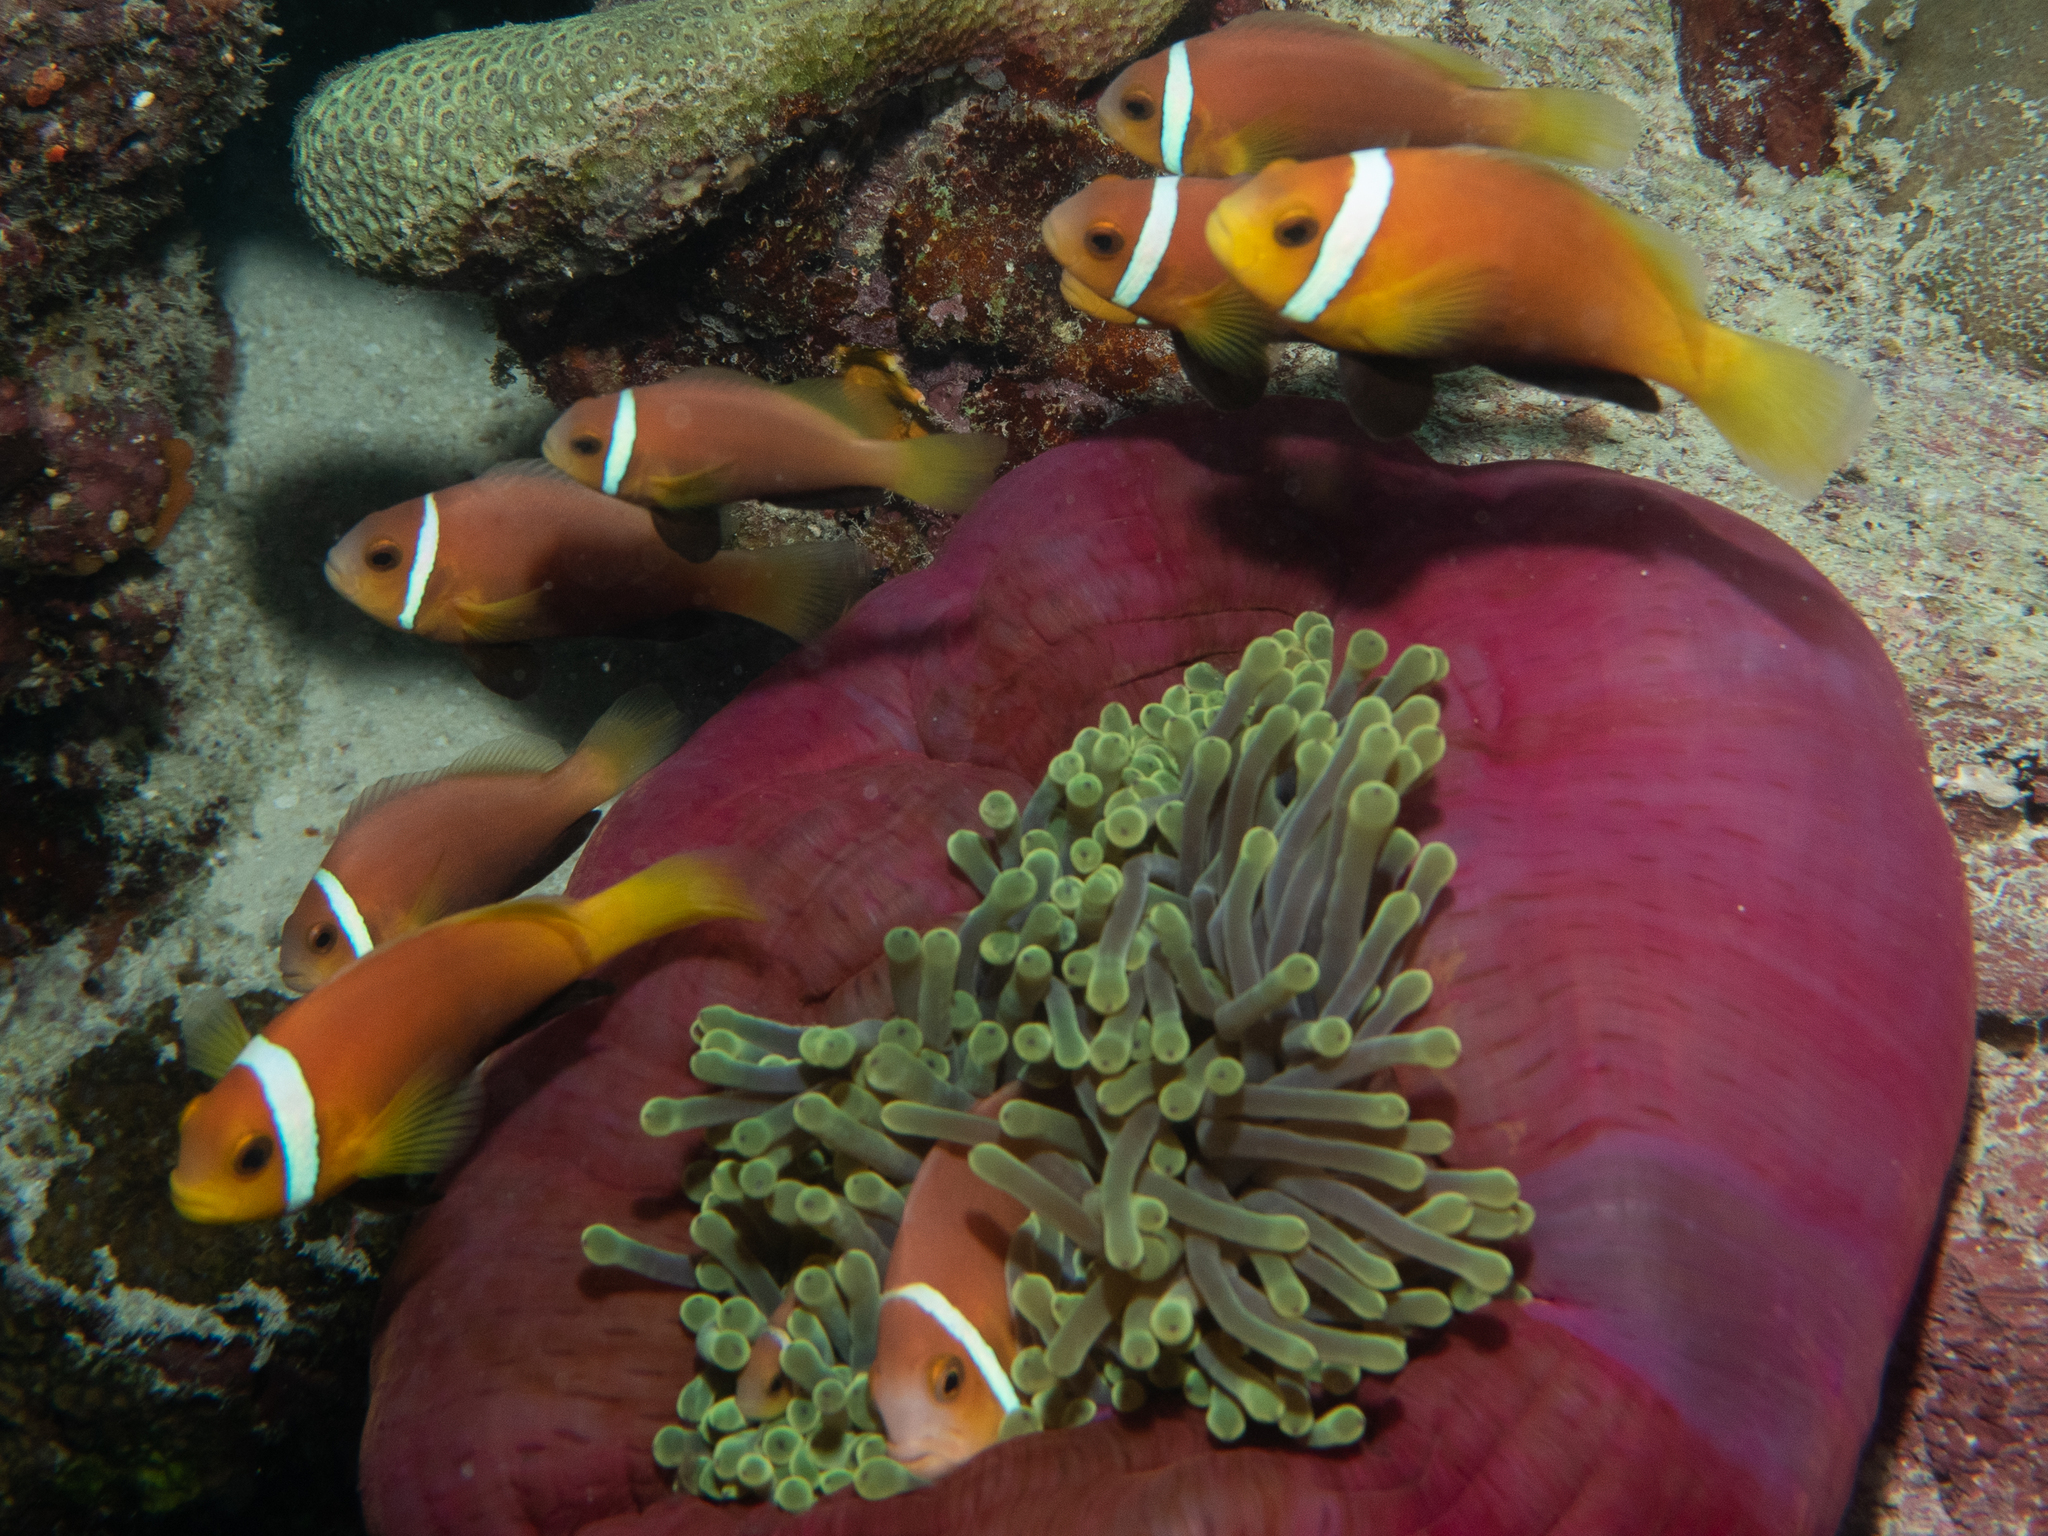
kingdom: Animalia
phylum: Chordata
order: Perciformes
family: Pomacentridae
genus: Amphiprion
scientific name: Amphiprion nigripes
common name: Maldive anemonefish
